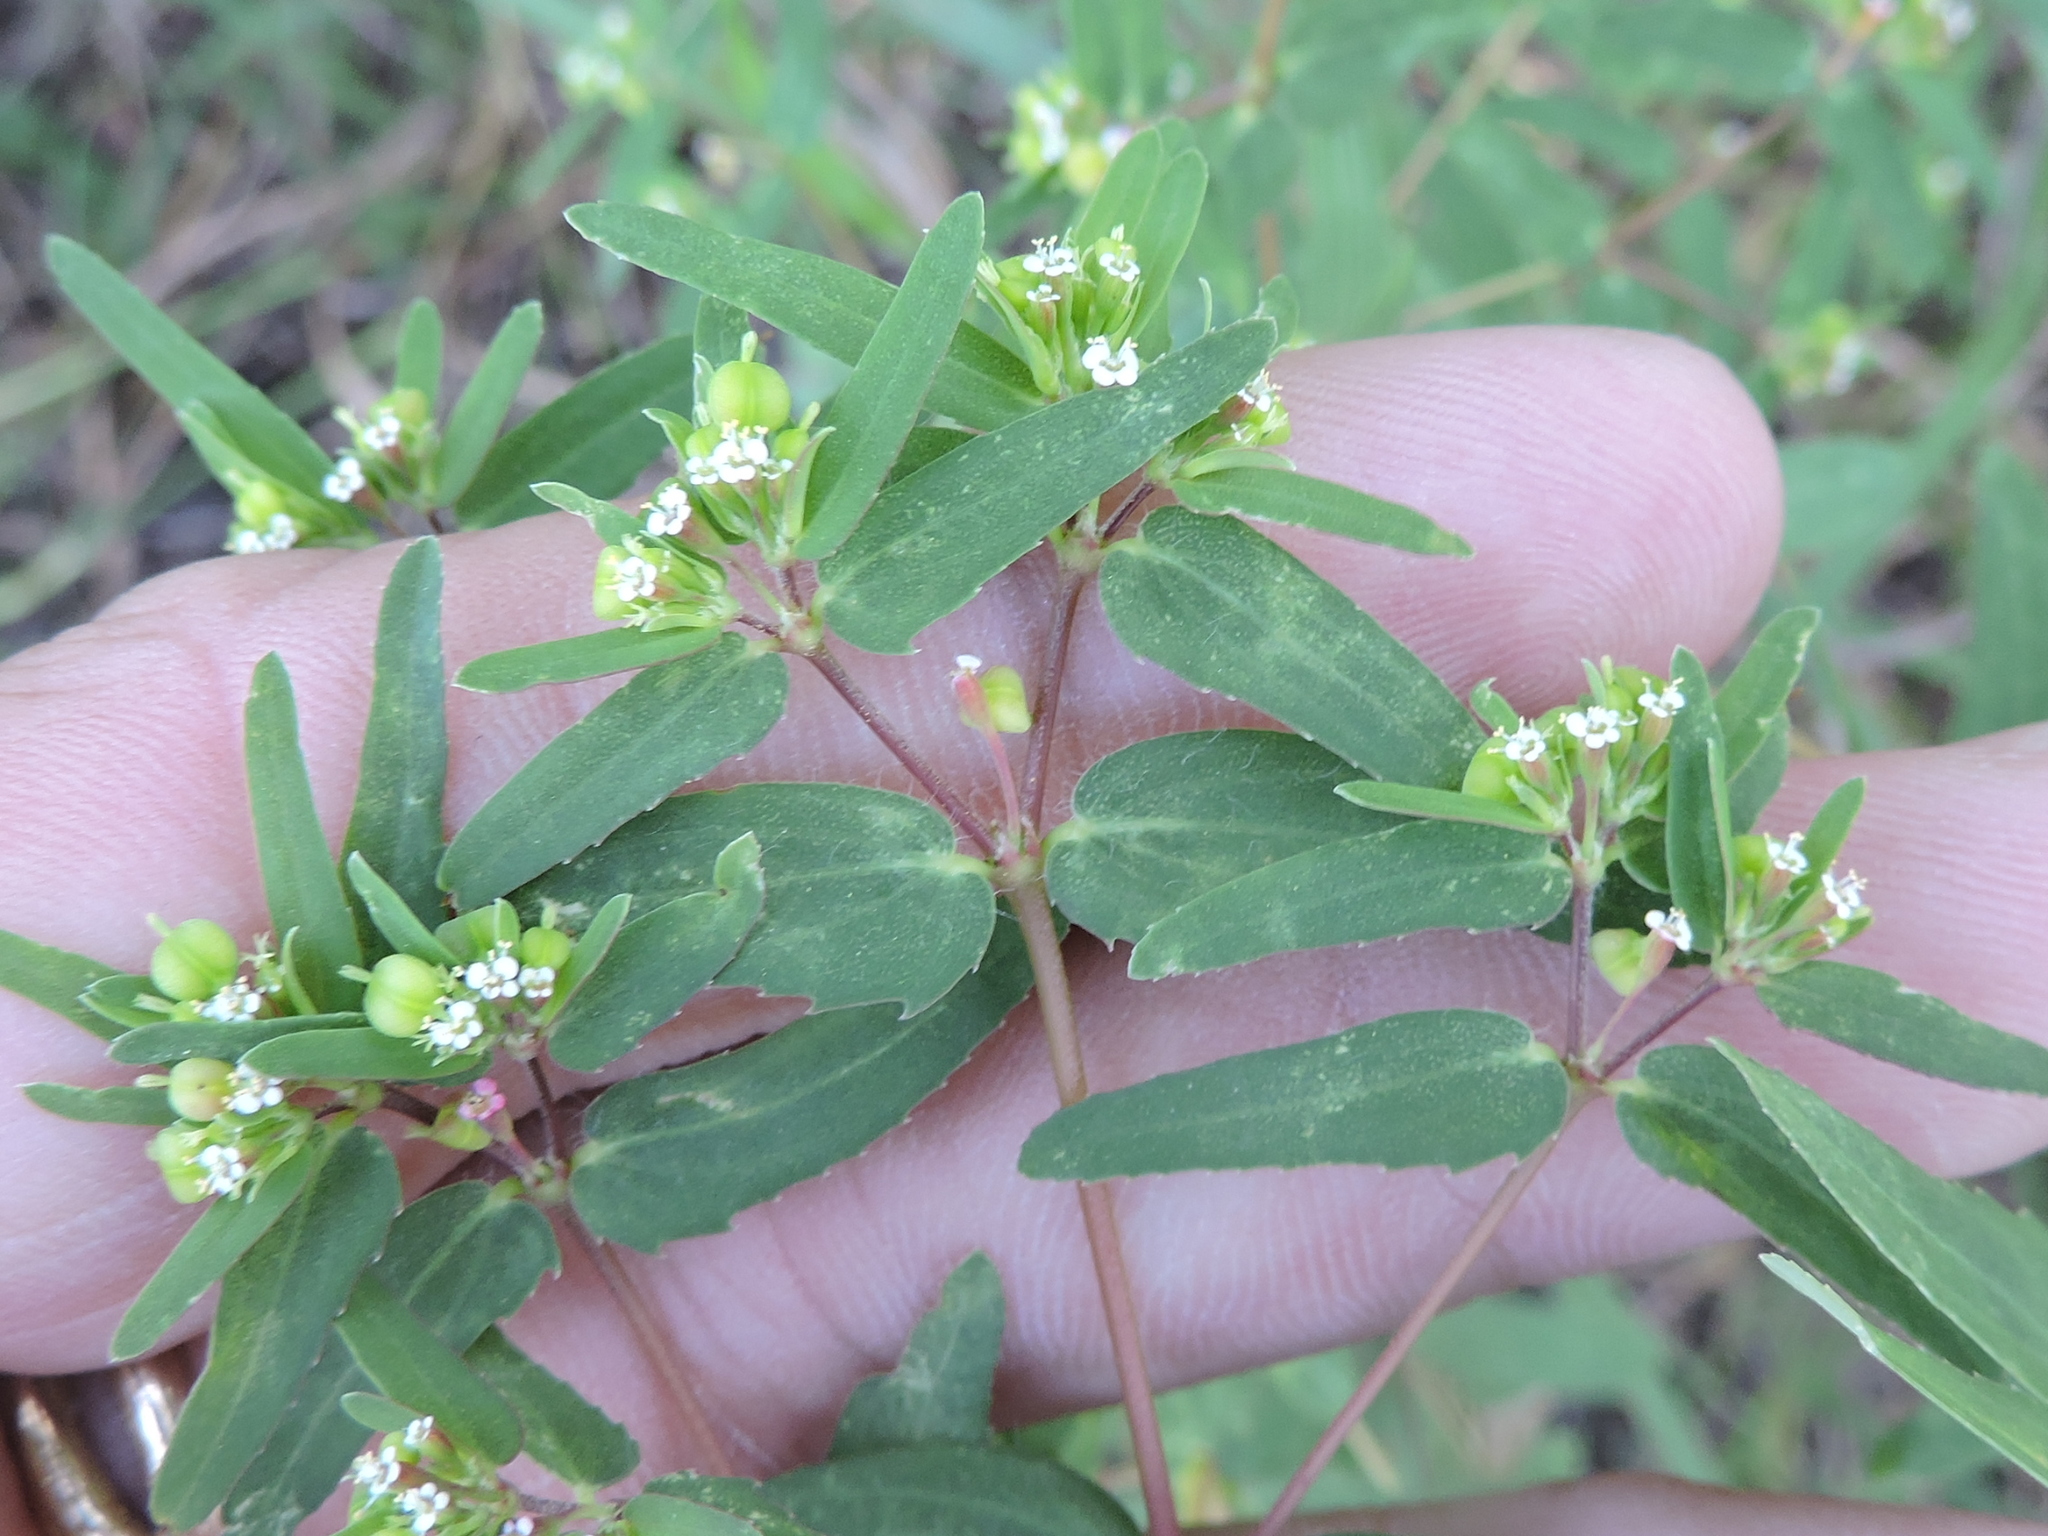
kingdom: Plantae
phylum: Tracheophyta
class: Magnoliopsida
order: Malpighiales
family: Euphorbiaceae
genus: Euphorbia
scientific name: Euphorbia nutans
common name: Eyebane
